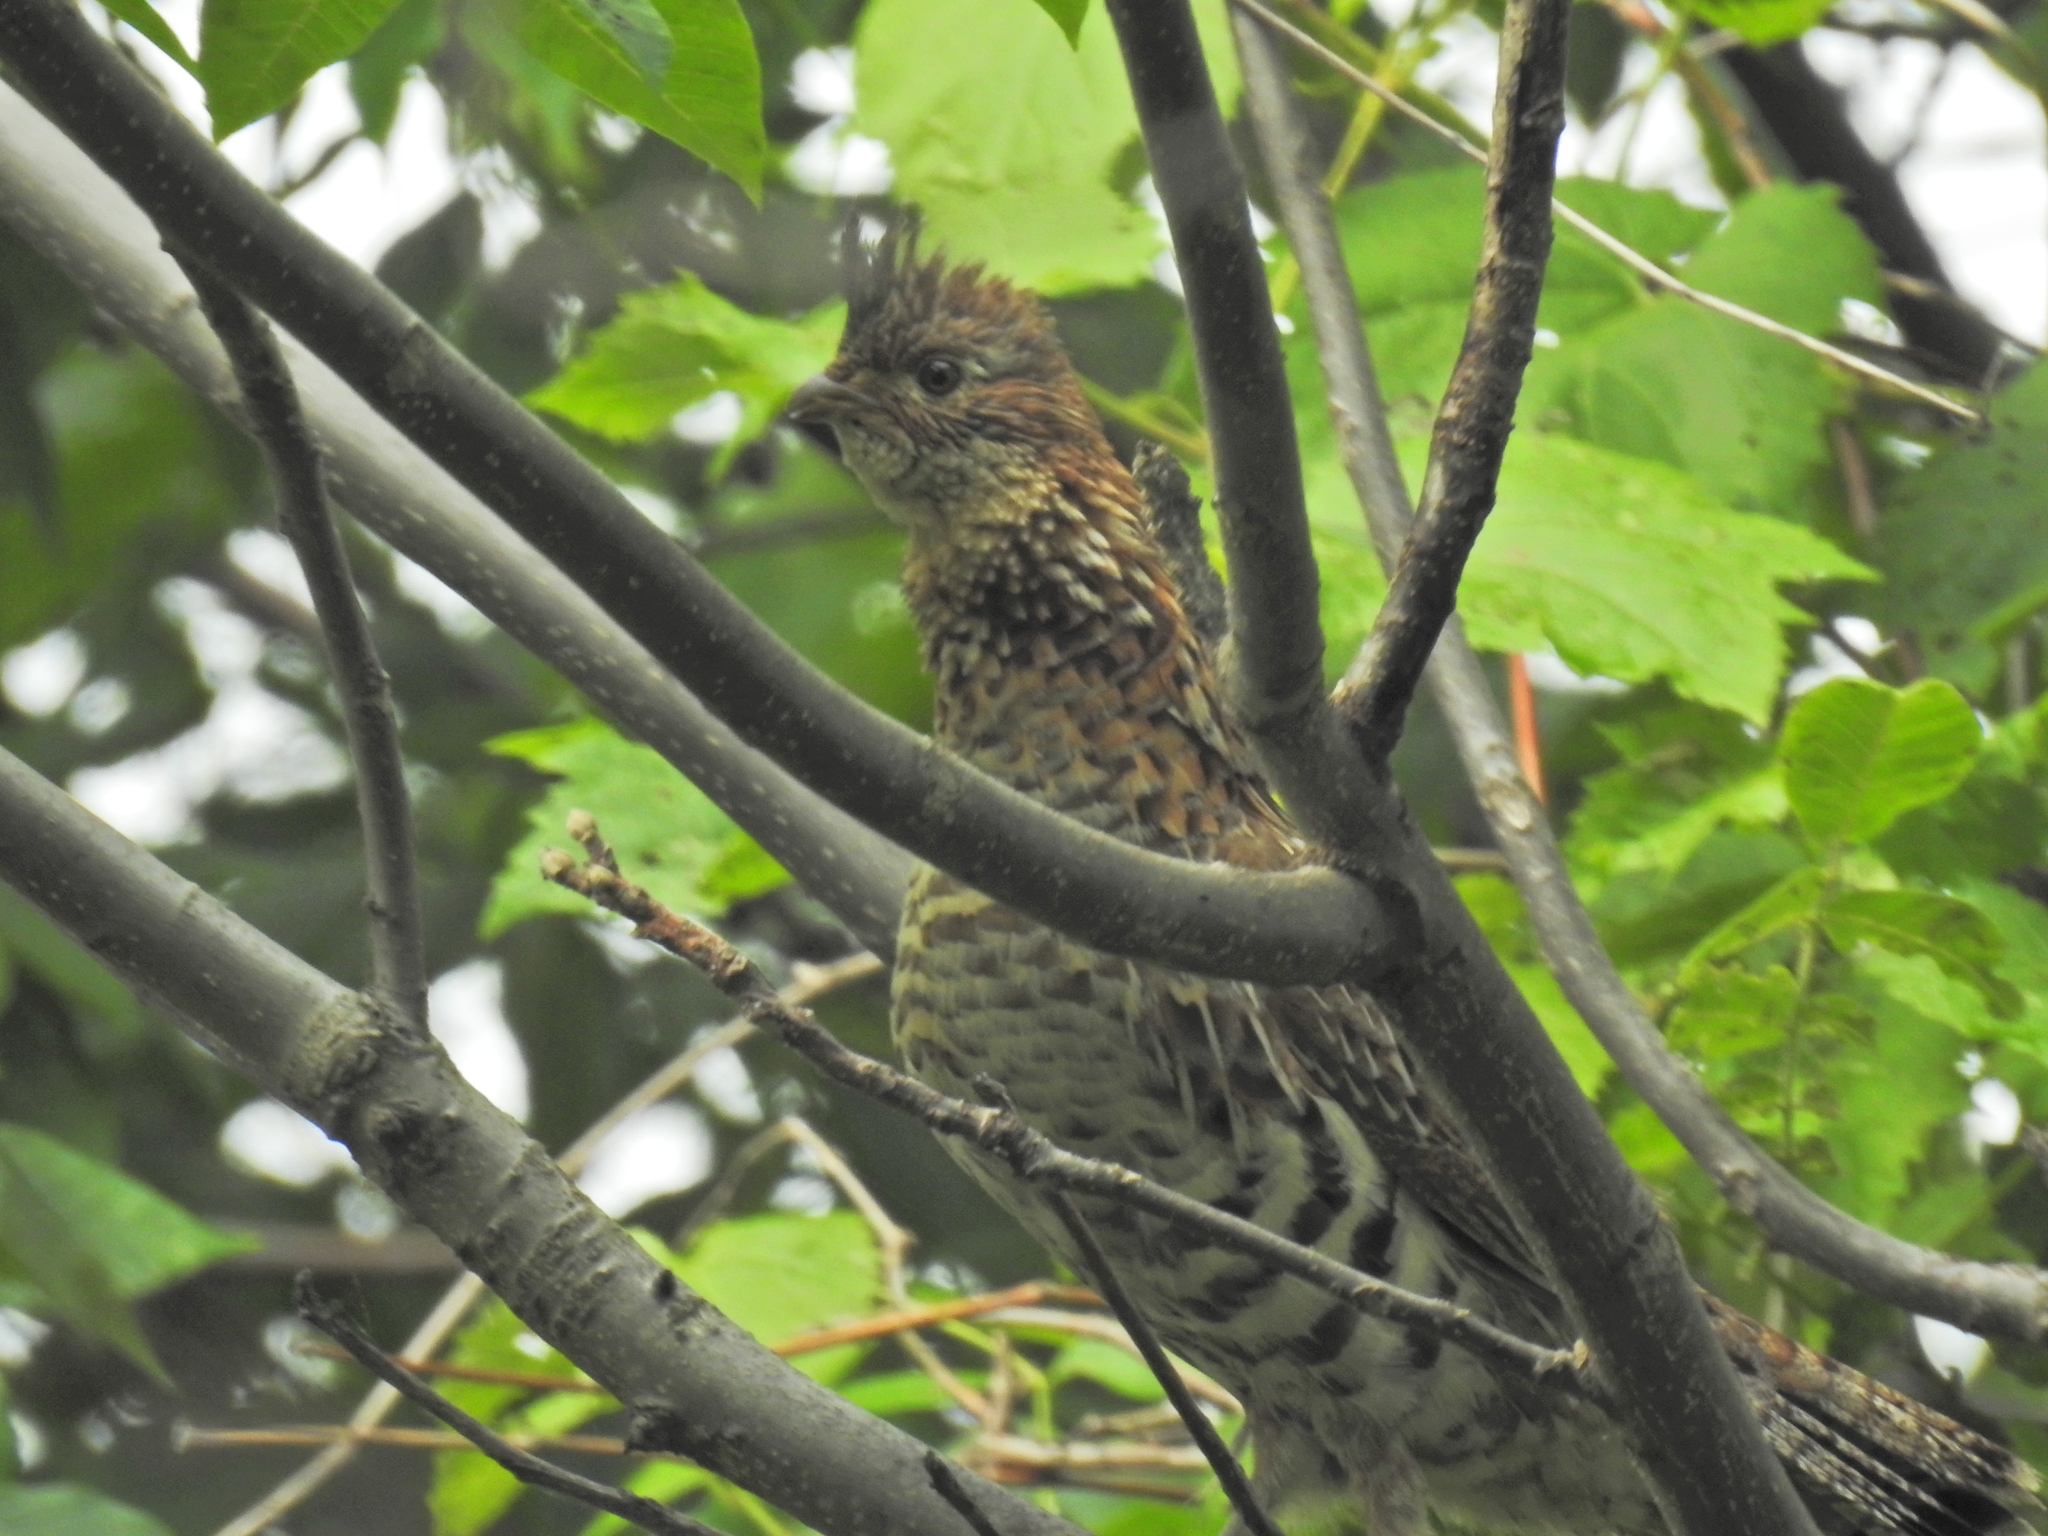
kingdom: Animalia
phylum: Chordata
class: Aves
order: Galliformes
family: Phasianidae
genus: Bonasa
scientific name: Bonasa umbellus
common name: Ruffed grouse
